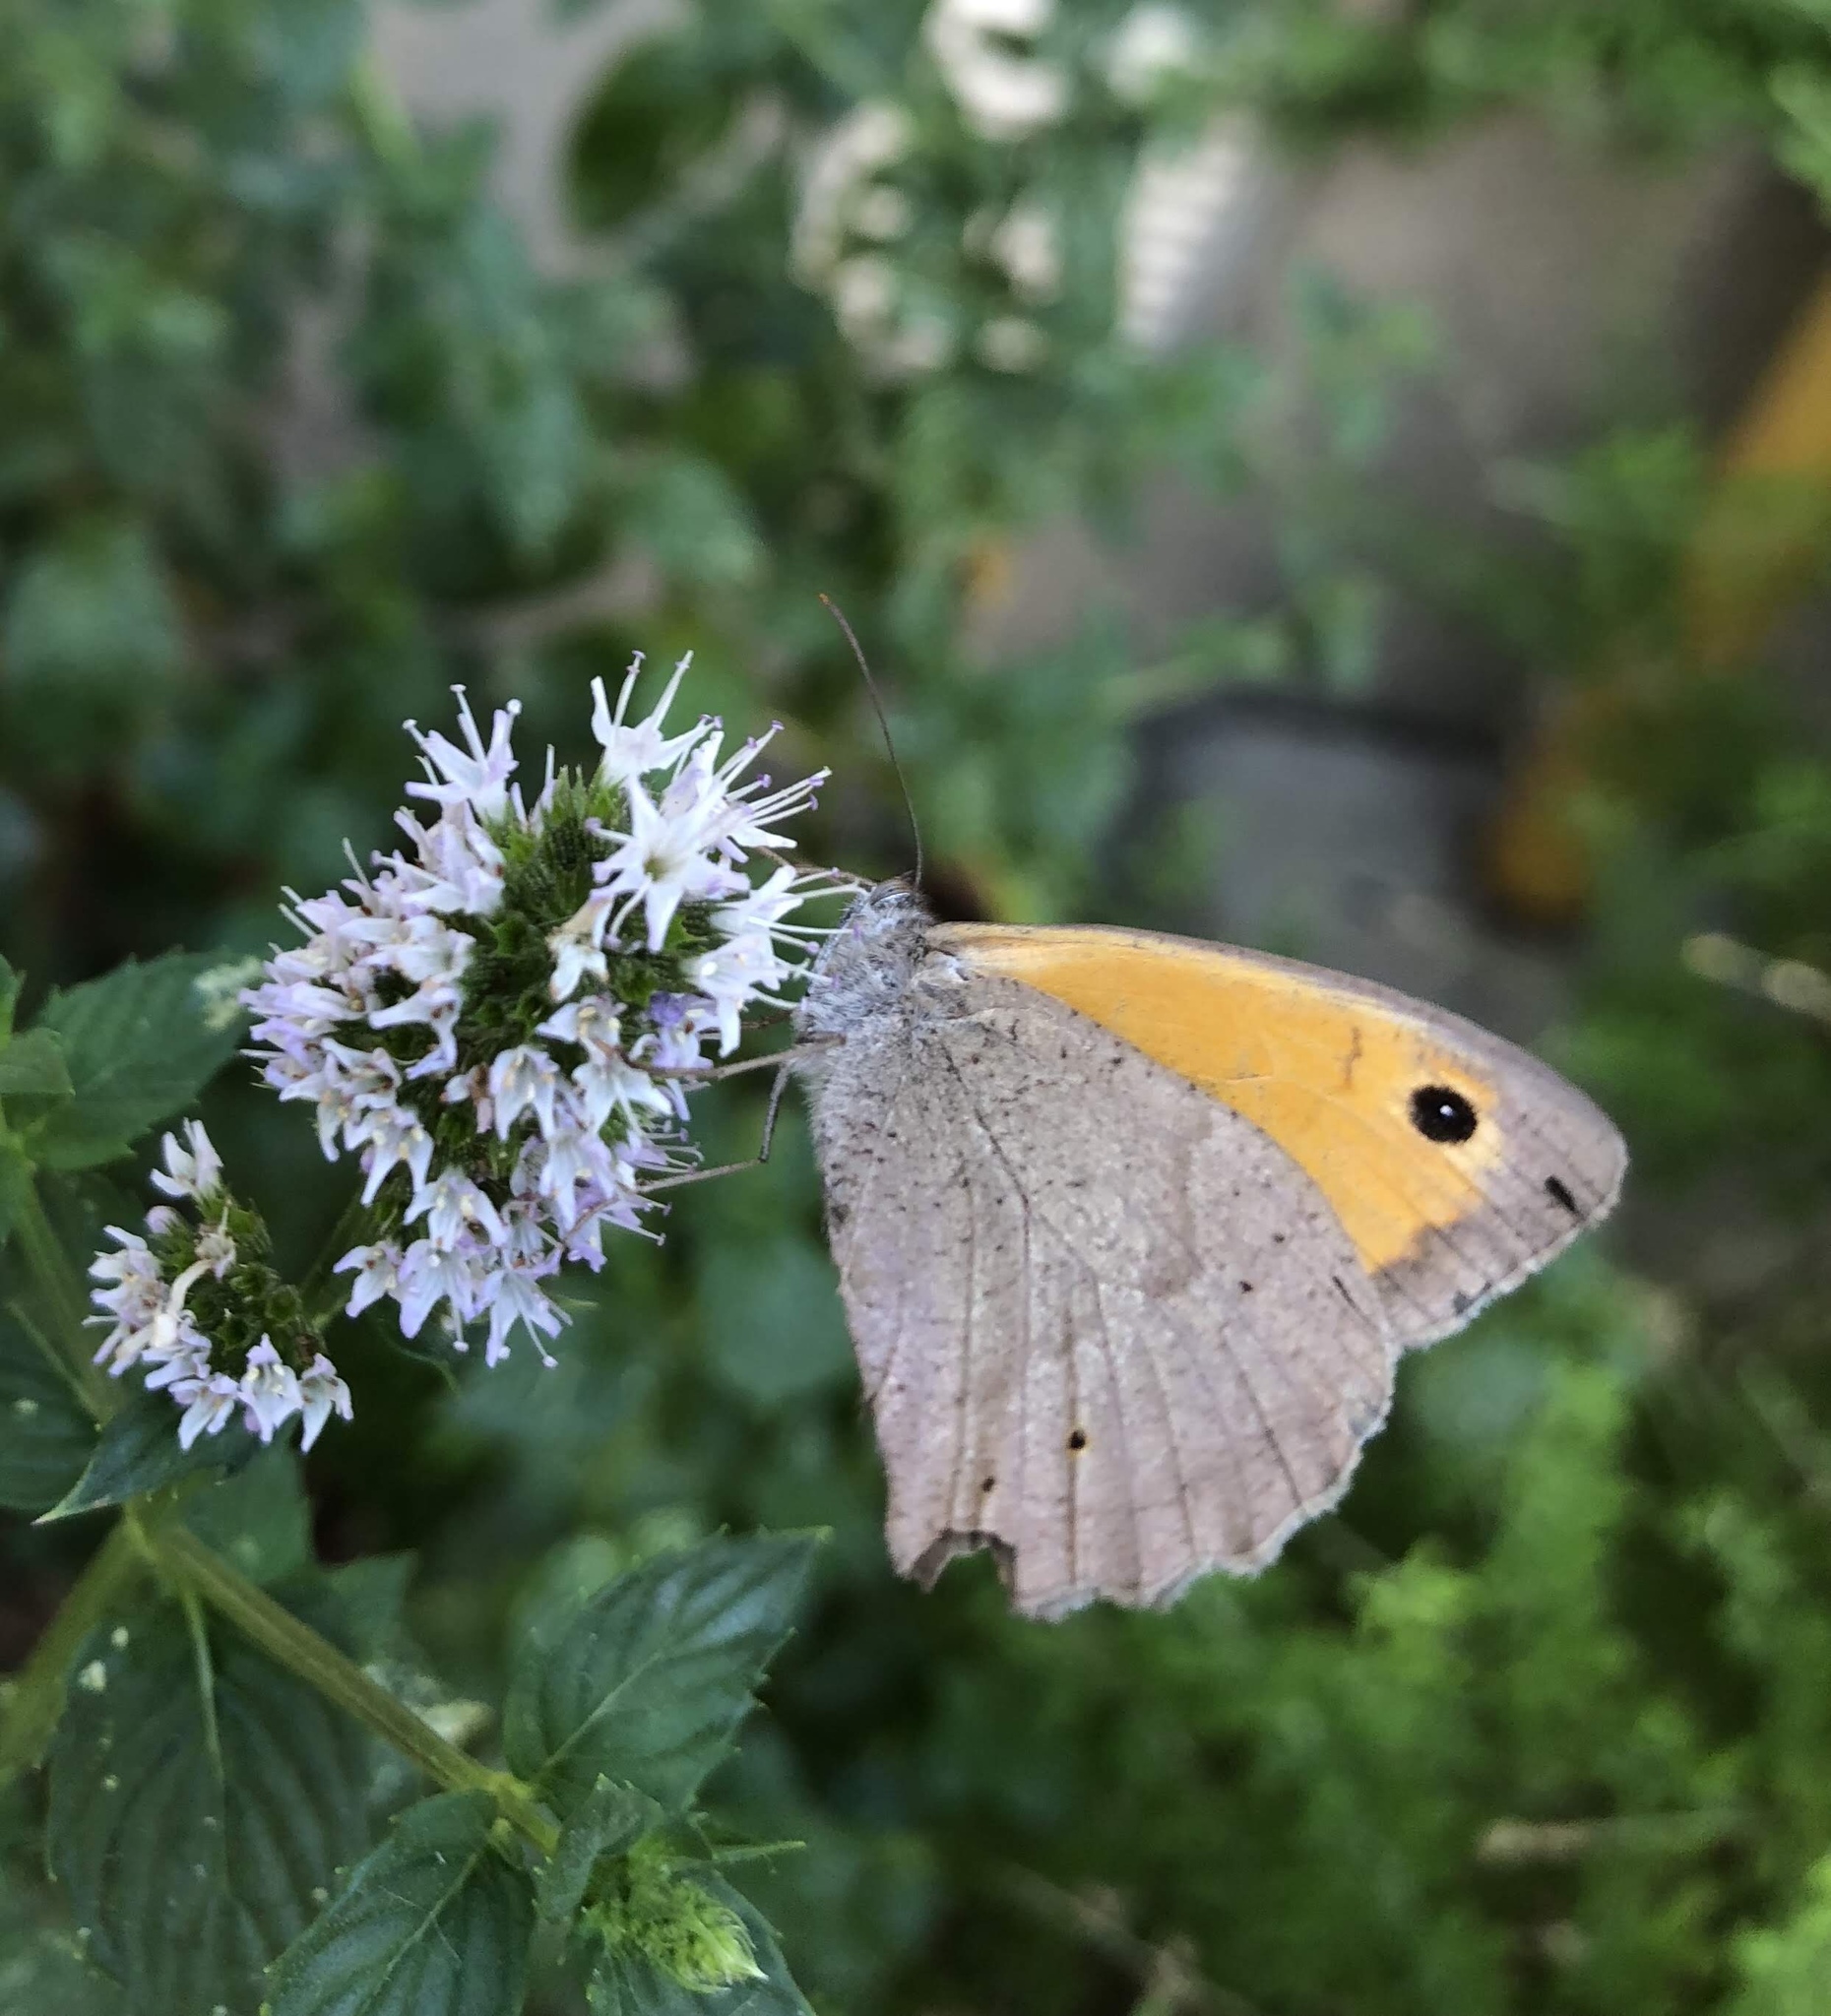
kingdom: Animalia
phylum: Arthropoda
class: Insecta
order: Lepidoptera
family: Nymphalidae
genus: Maniola
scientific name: Maniola jurtina
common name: Meadow brown
